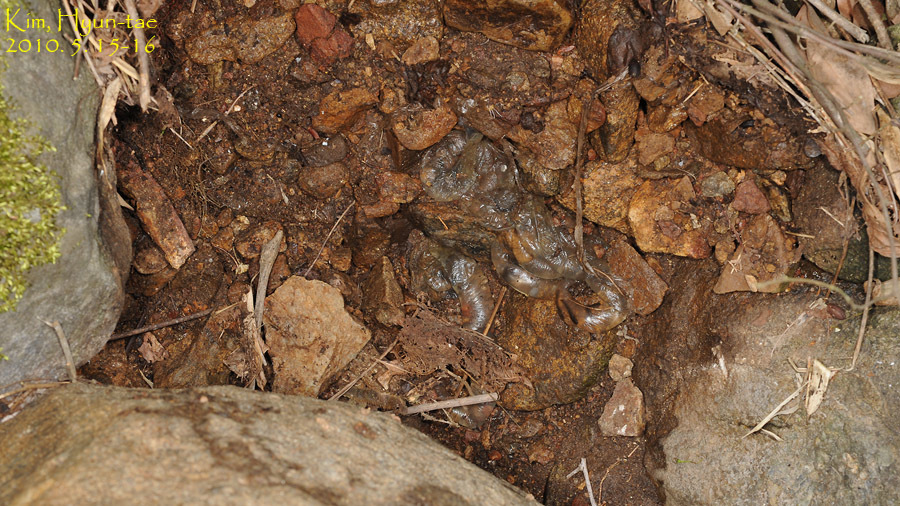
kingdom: Animalia
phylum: Chordata
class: Amphibia
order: Caudata
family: Hynobiidae
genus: Hynobius
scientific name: Hynobius leechii
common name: Gensan salamander
